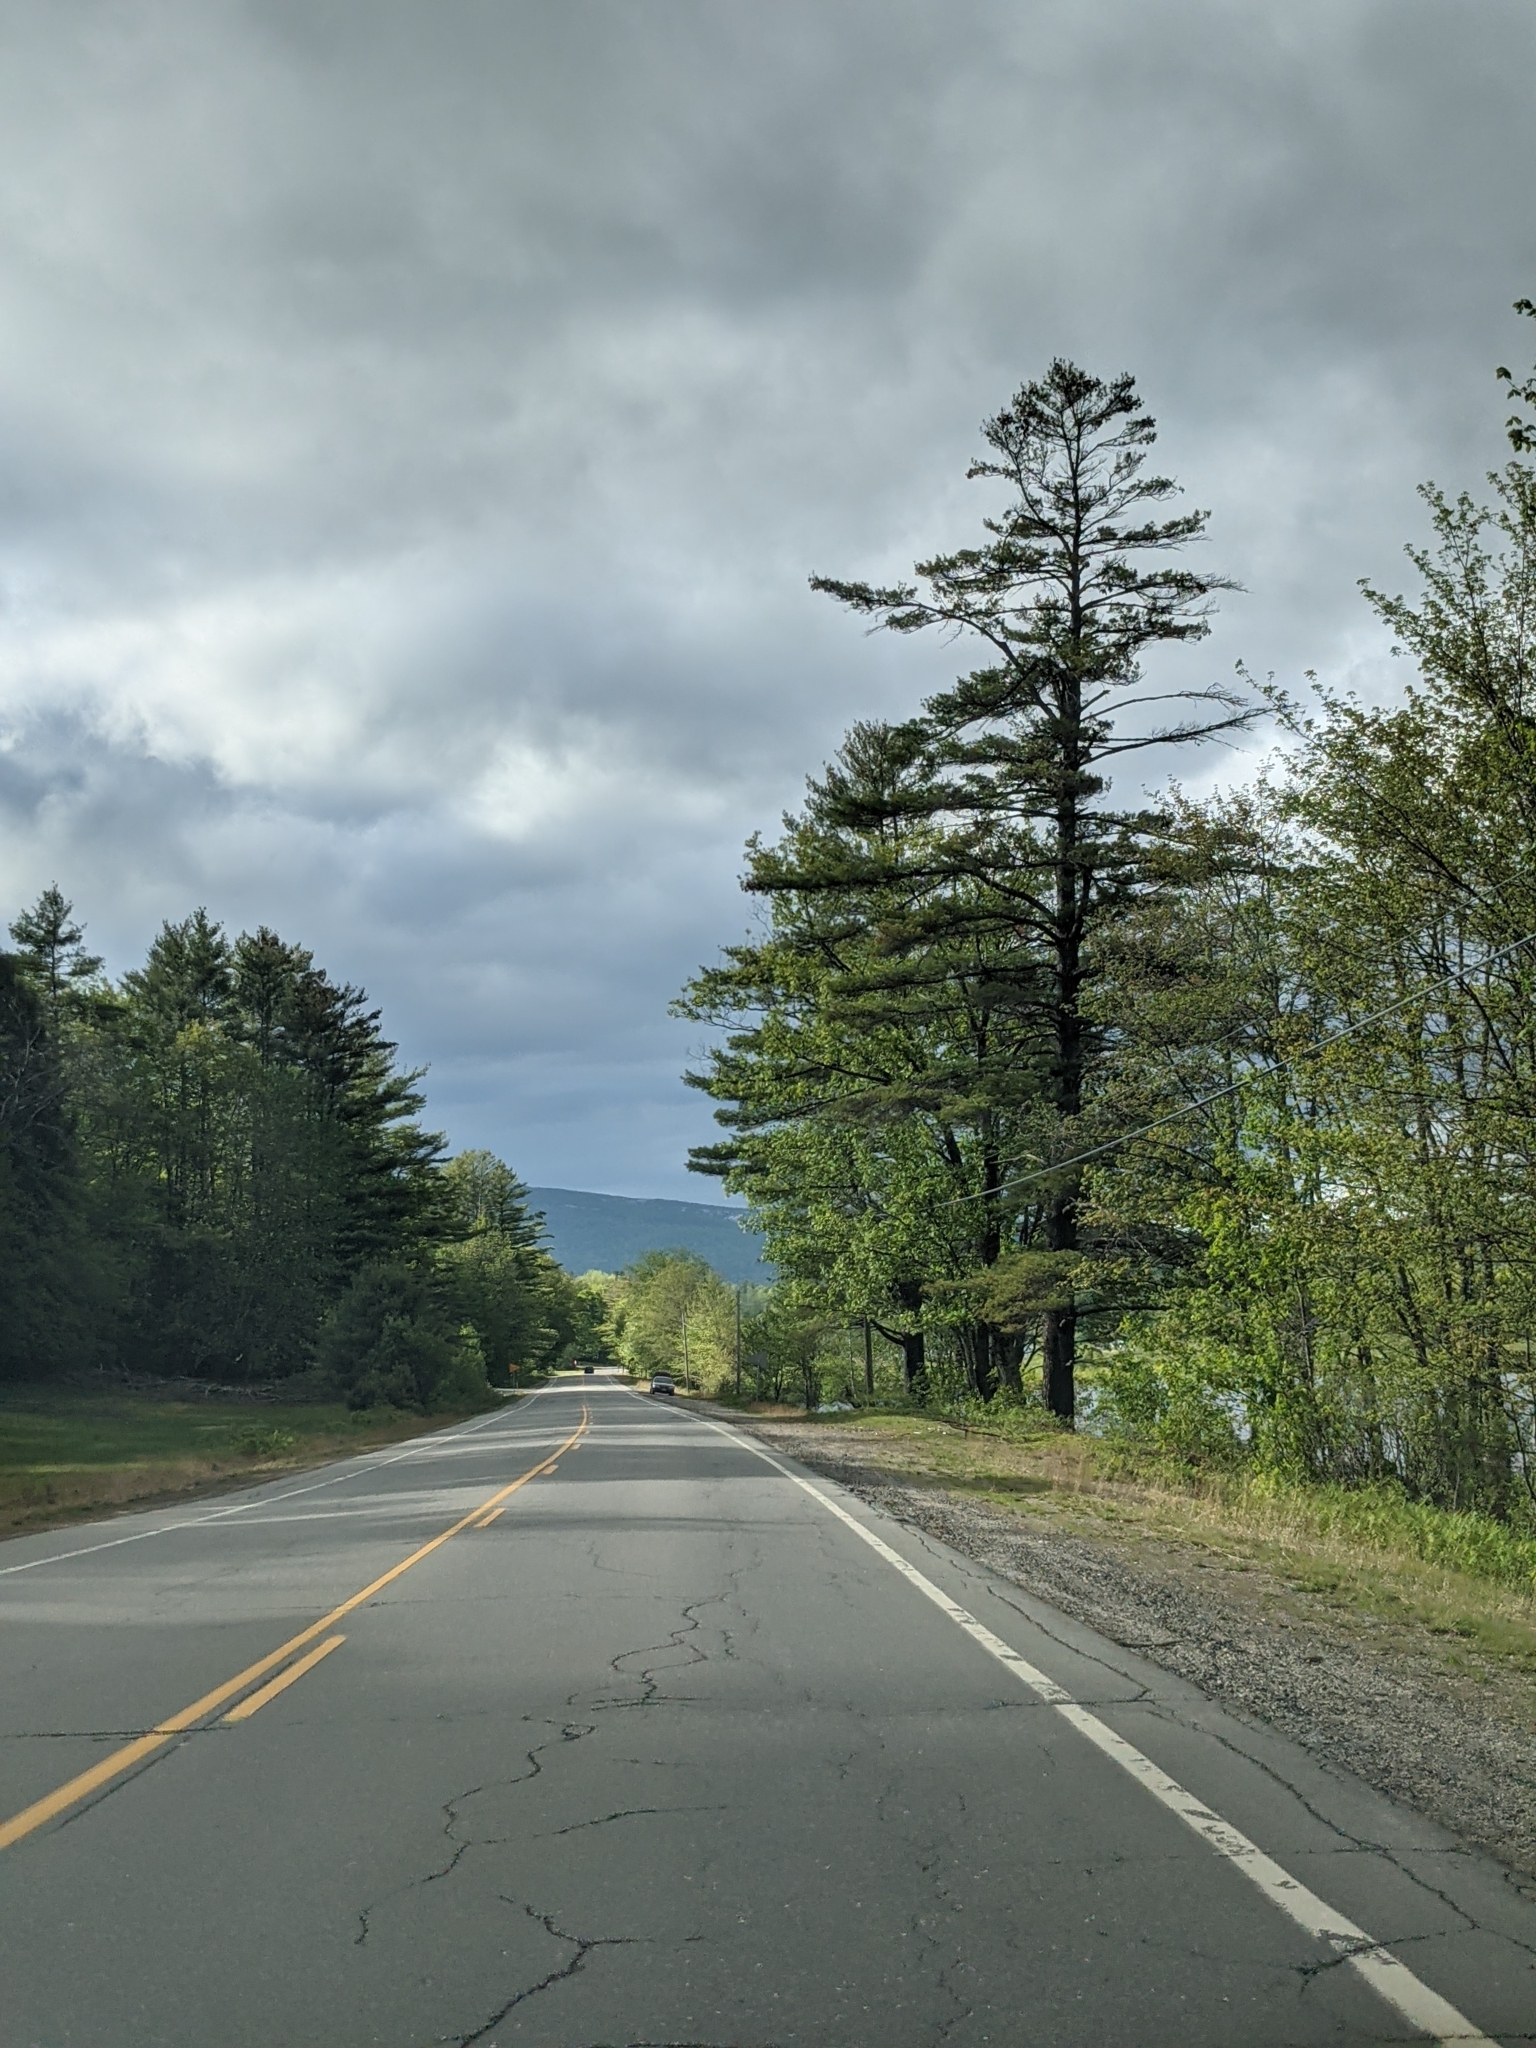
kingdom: Plantae
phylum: Tracheophyta
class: Pinopsida
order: Pinales
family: Pinaceae
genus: Pinus
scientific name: Pinus strobus
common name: Weymouth pine
